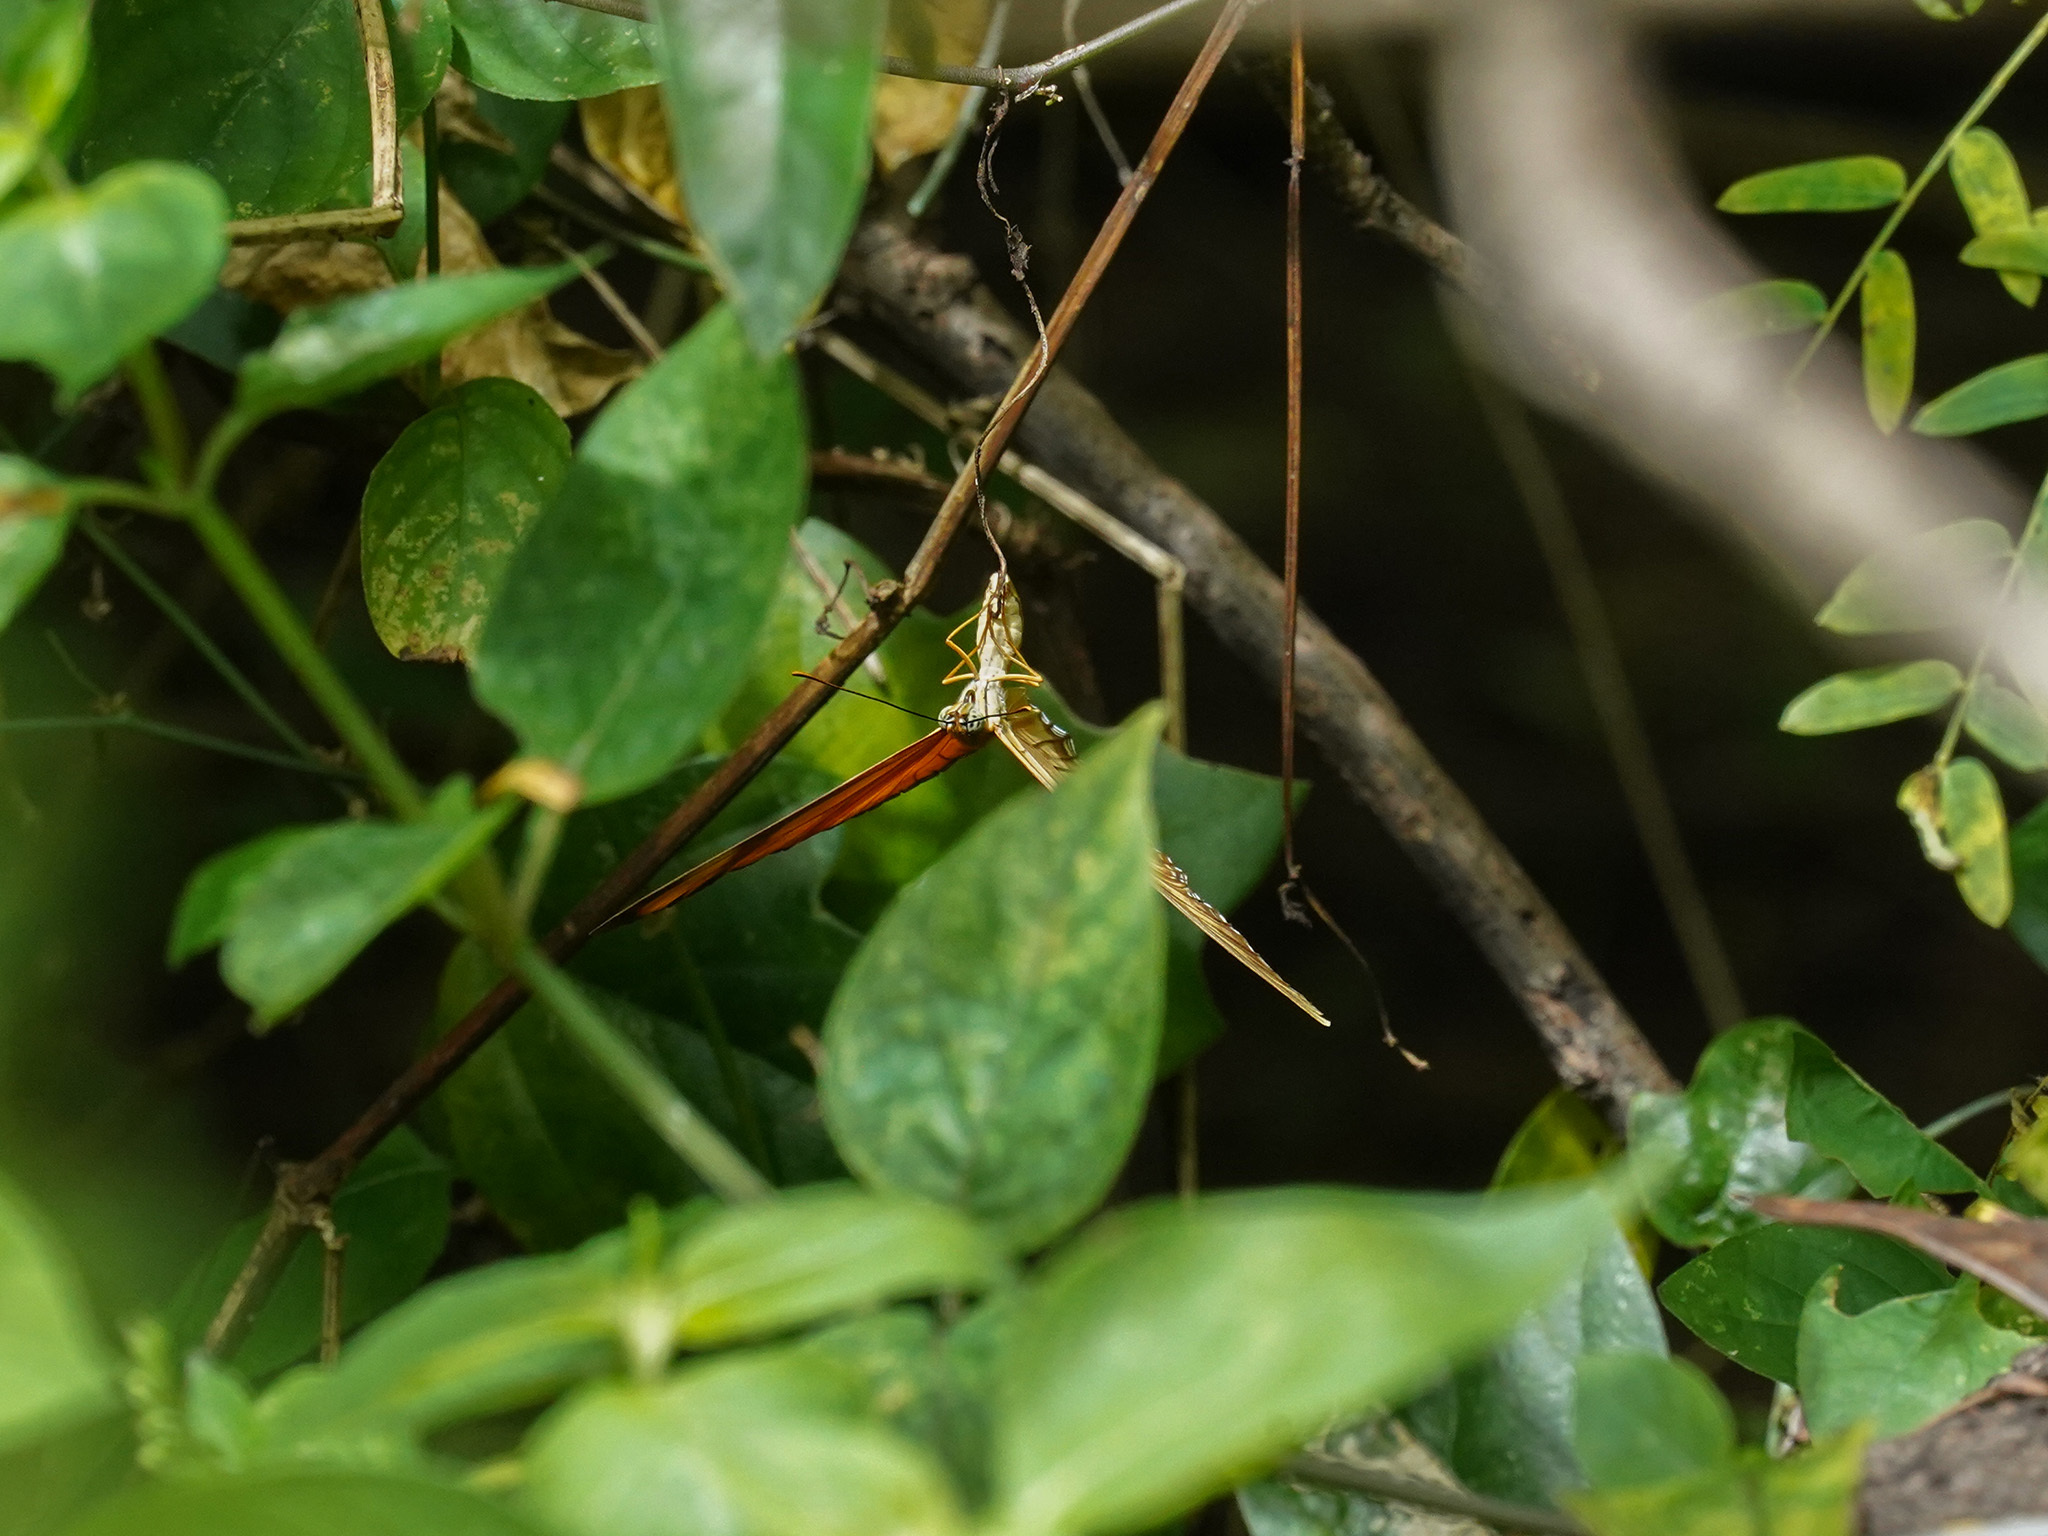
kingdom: Animalia
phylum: Arthropoda
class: Insecta
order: Lepidoptera
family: Nymphalidae
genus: Dryas
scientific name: Dryas iulia
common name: Flambeau
